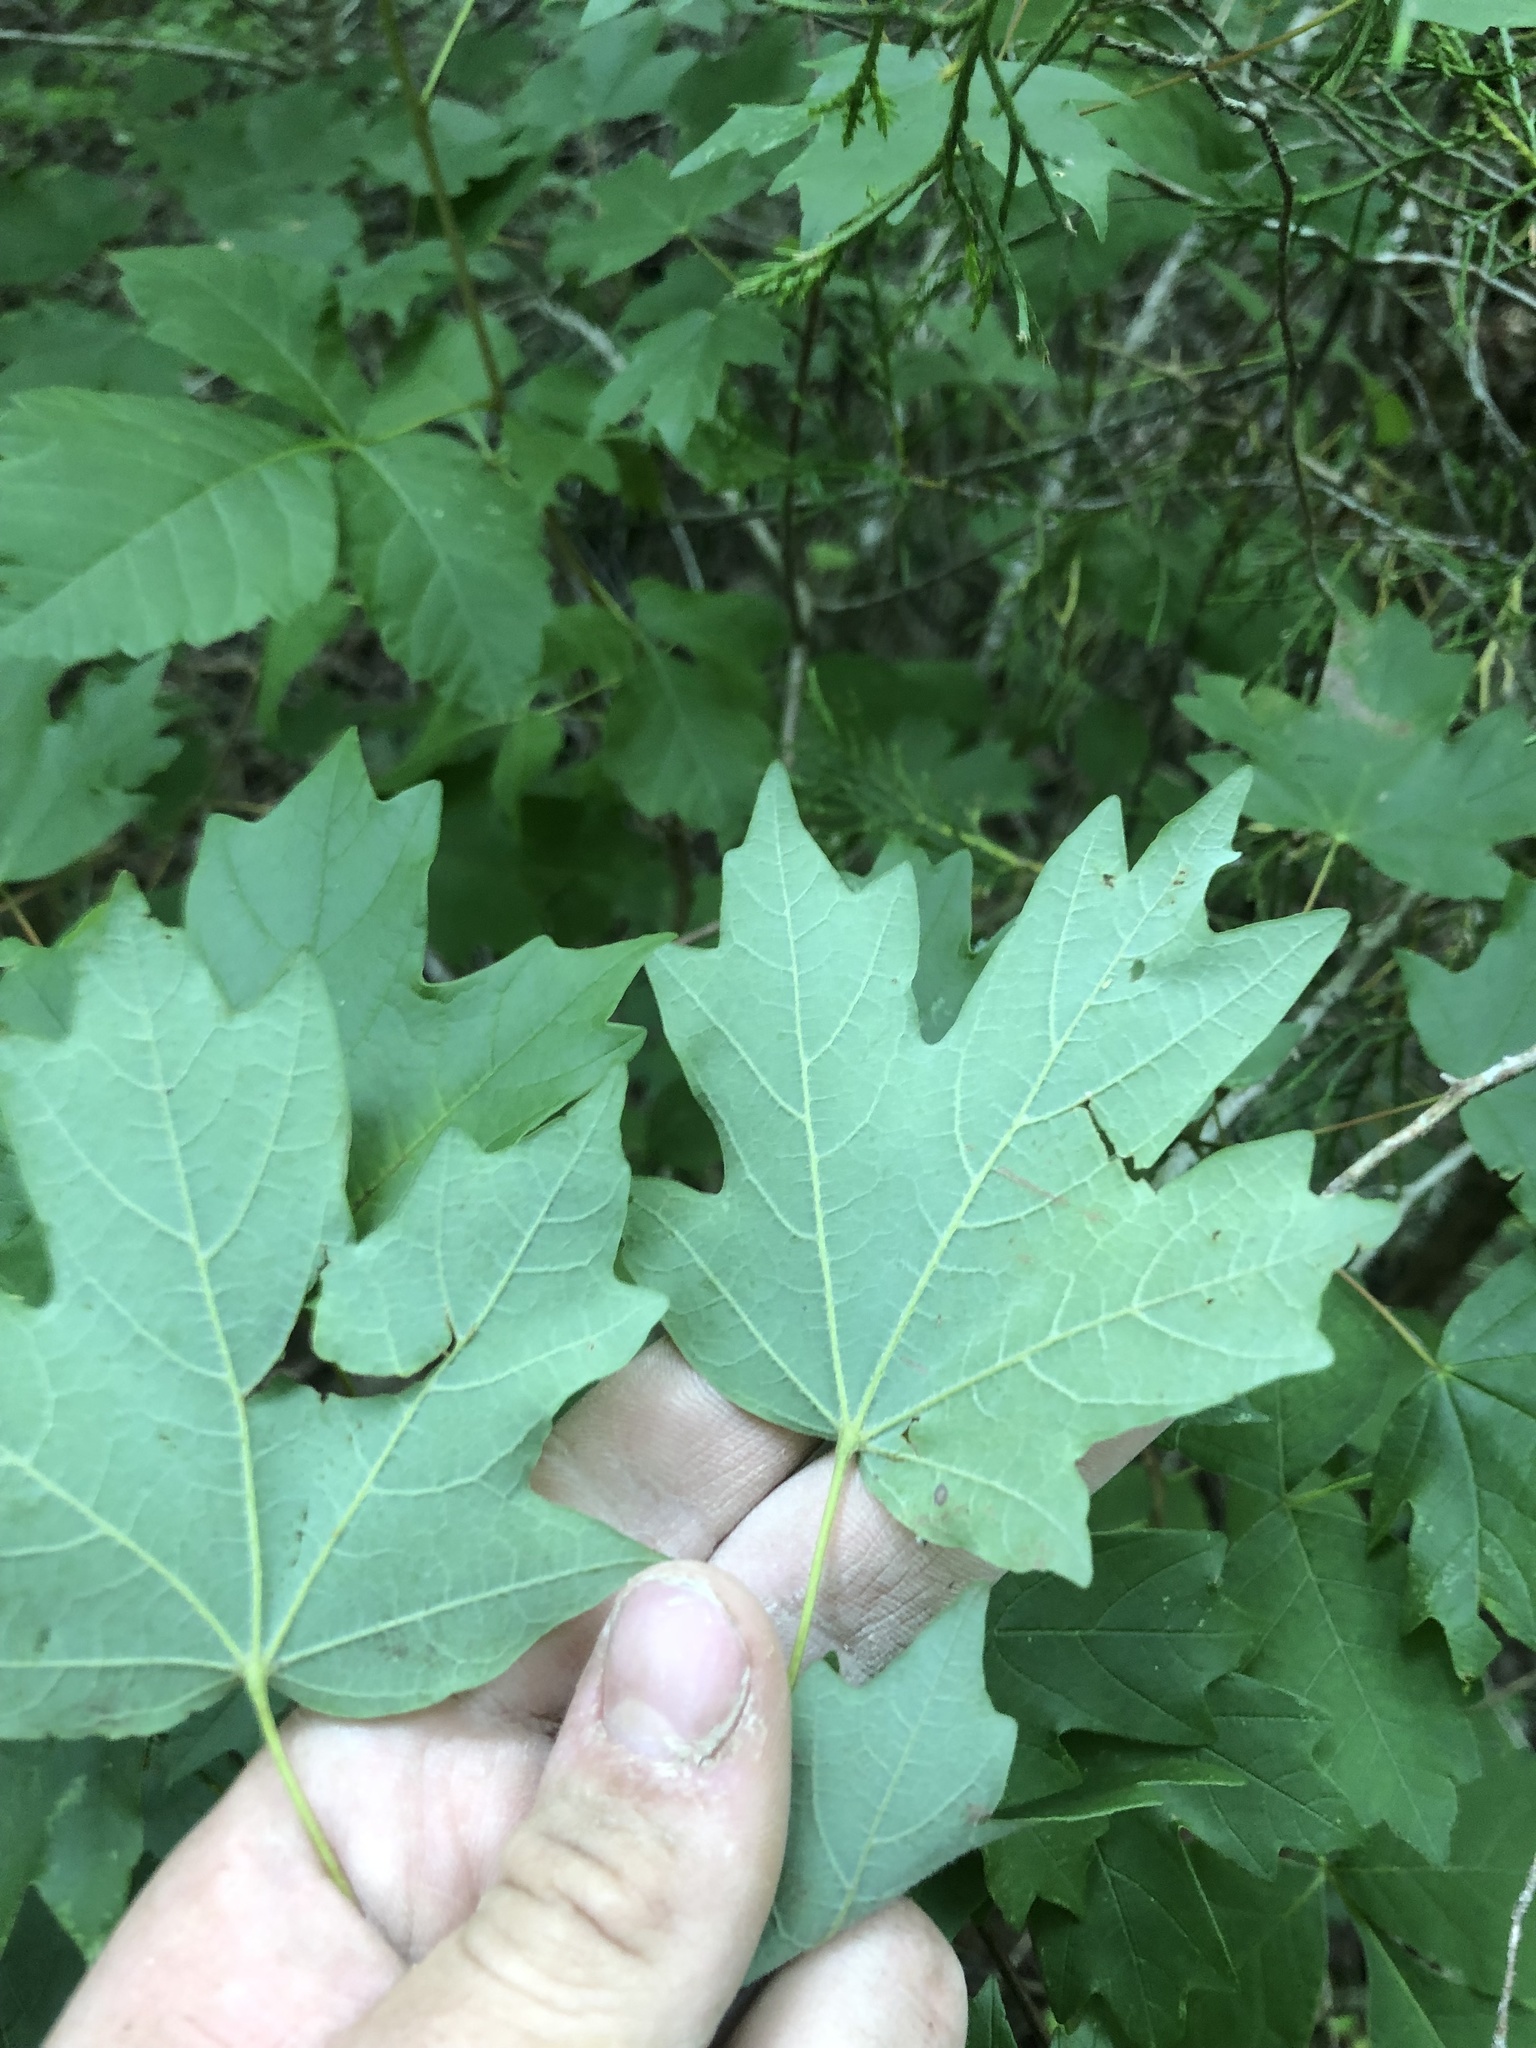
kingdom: Plantae
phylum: Tracheophyta
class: Magnoliopsida
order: Sapindales
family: Sapindaceae
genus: Acer
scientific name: Acer leucoderme
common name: Chalk maple
